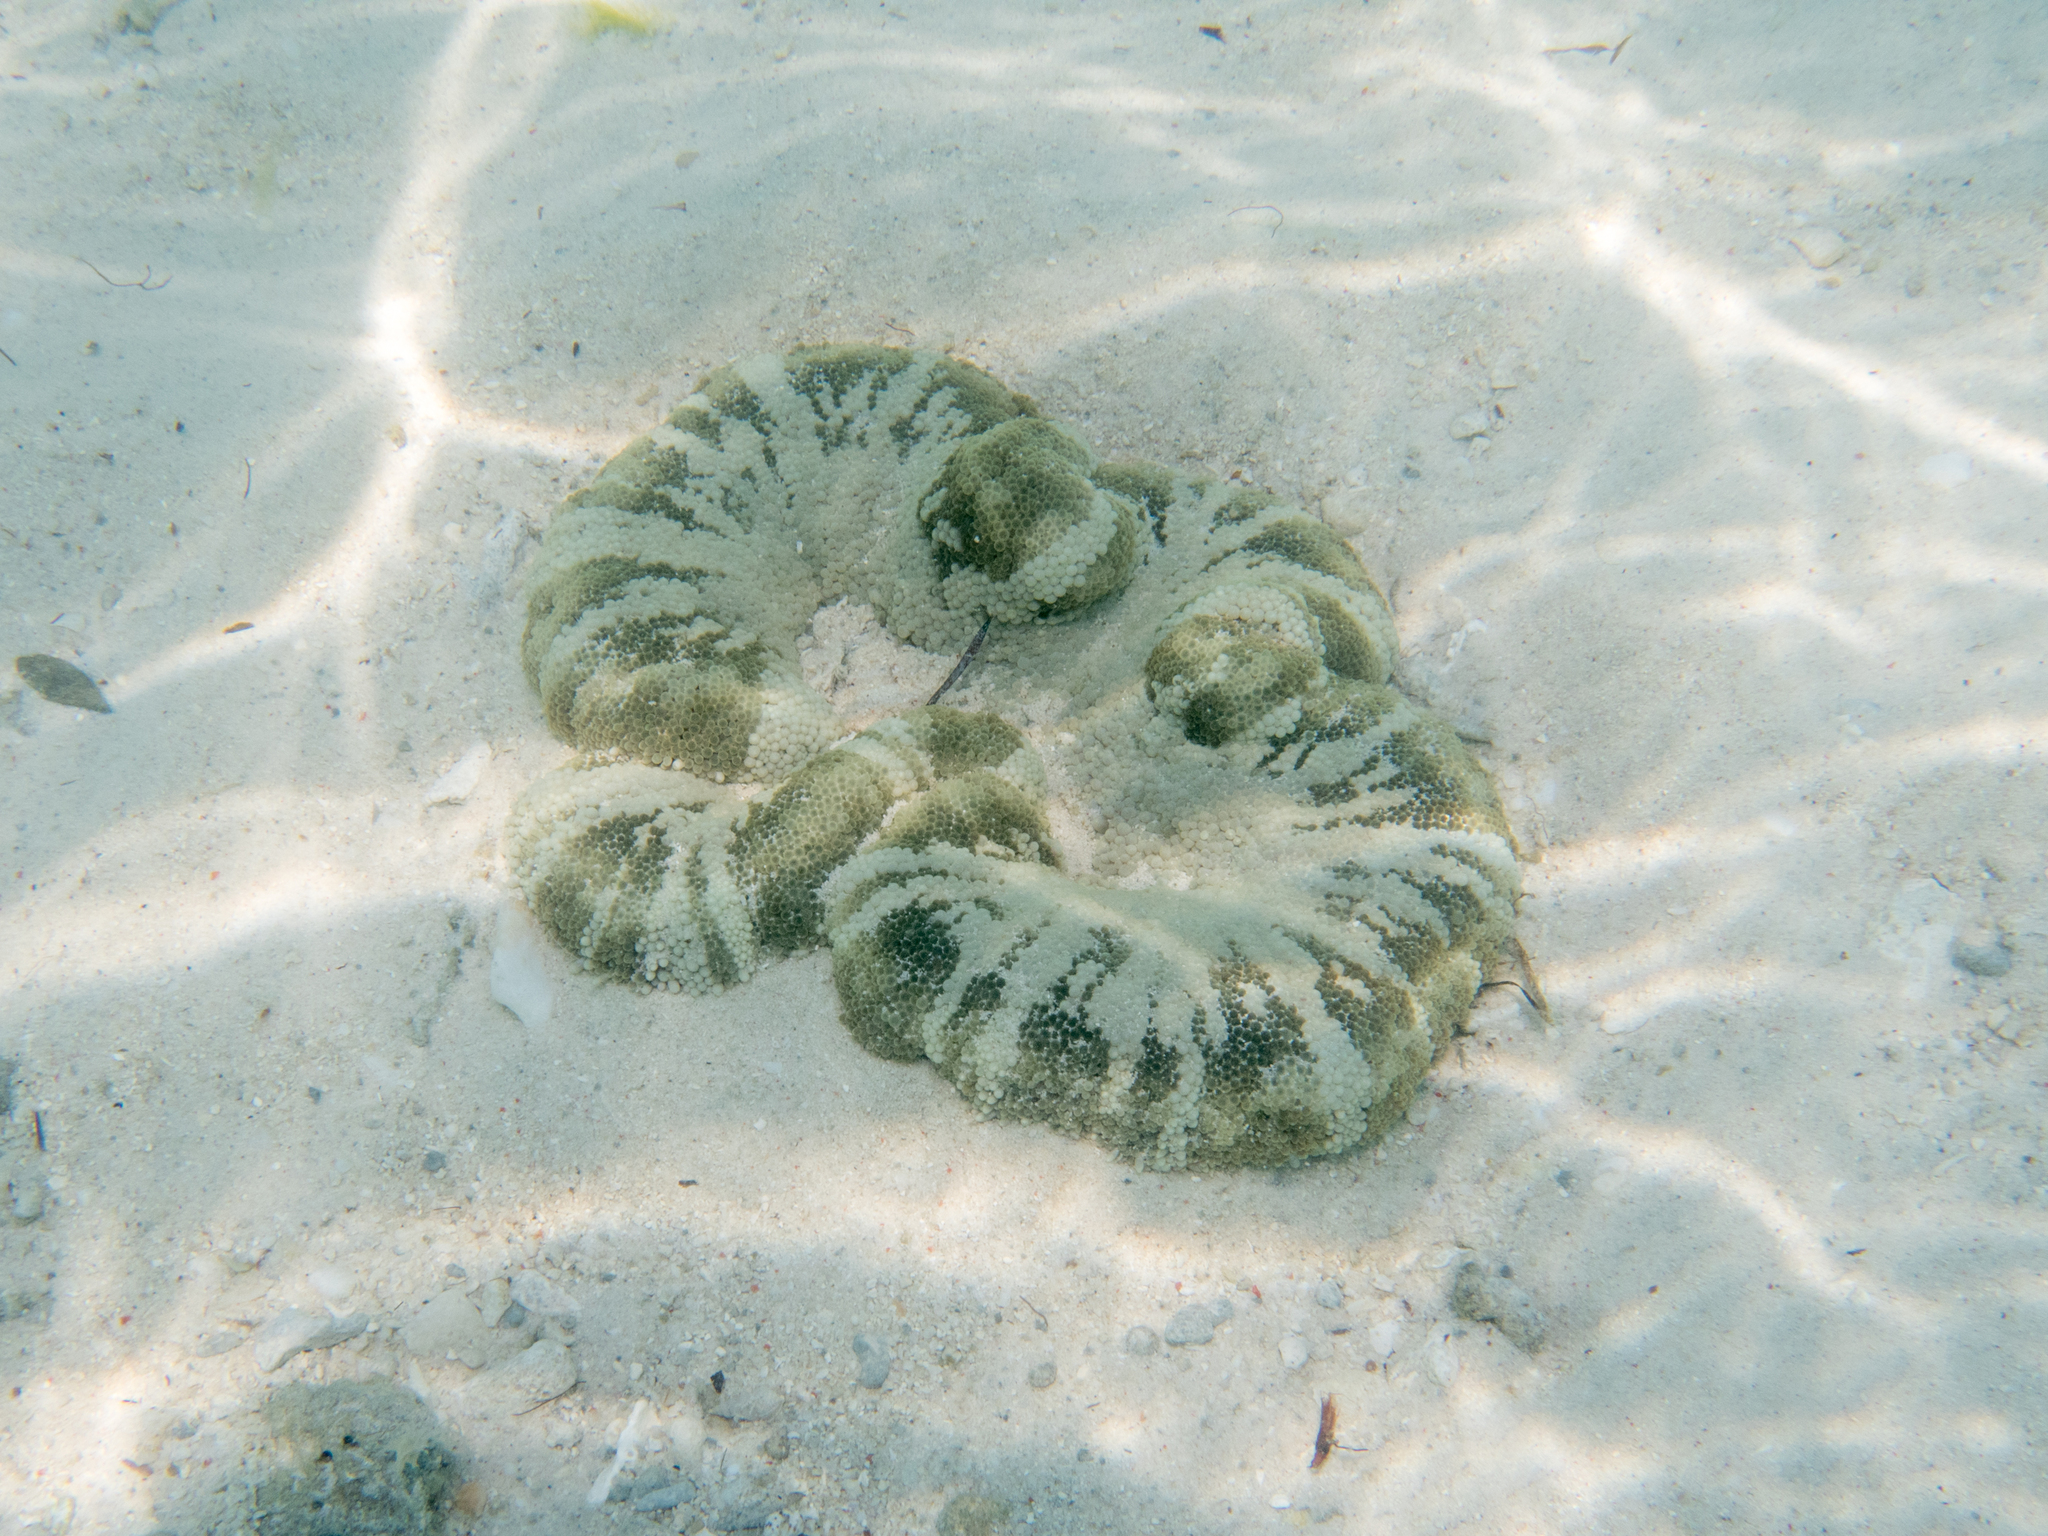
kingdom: Animalia
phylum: Cnidaria
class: Anthozoa
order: Actiniaria
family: Stichodactylidae
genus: Stichodactyla
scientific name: Stichodactyla haddoni
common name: Haddon's sea anemone
